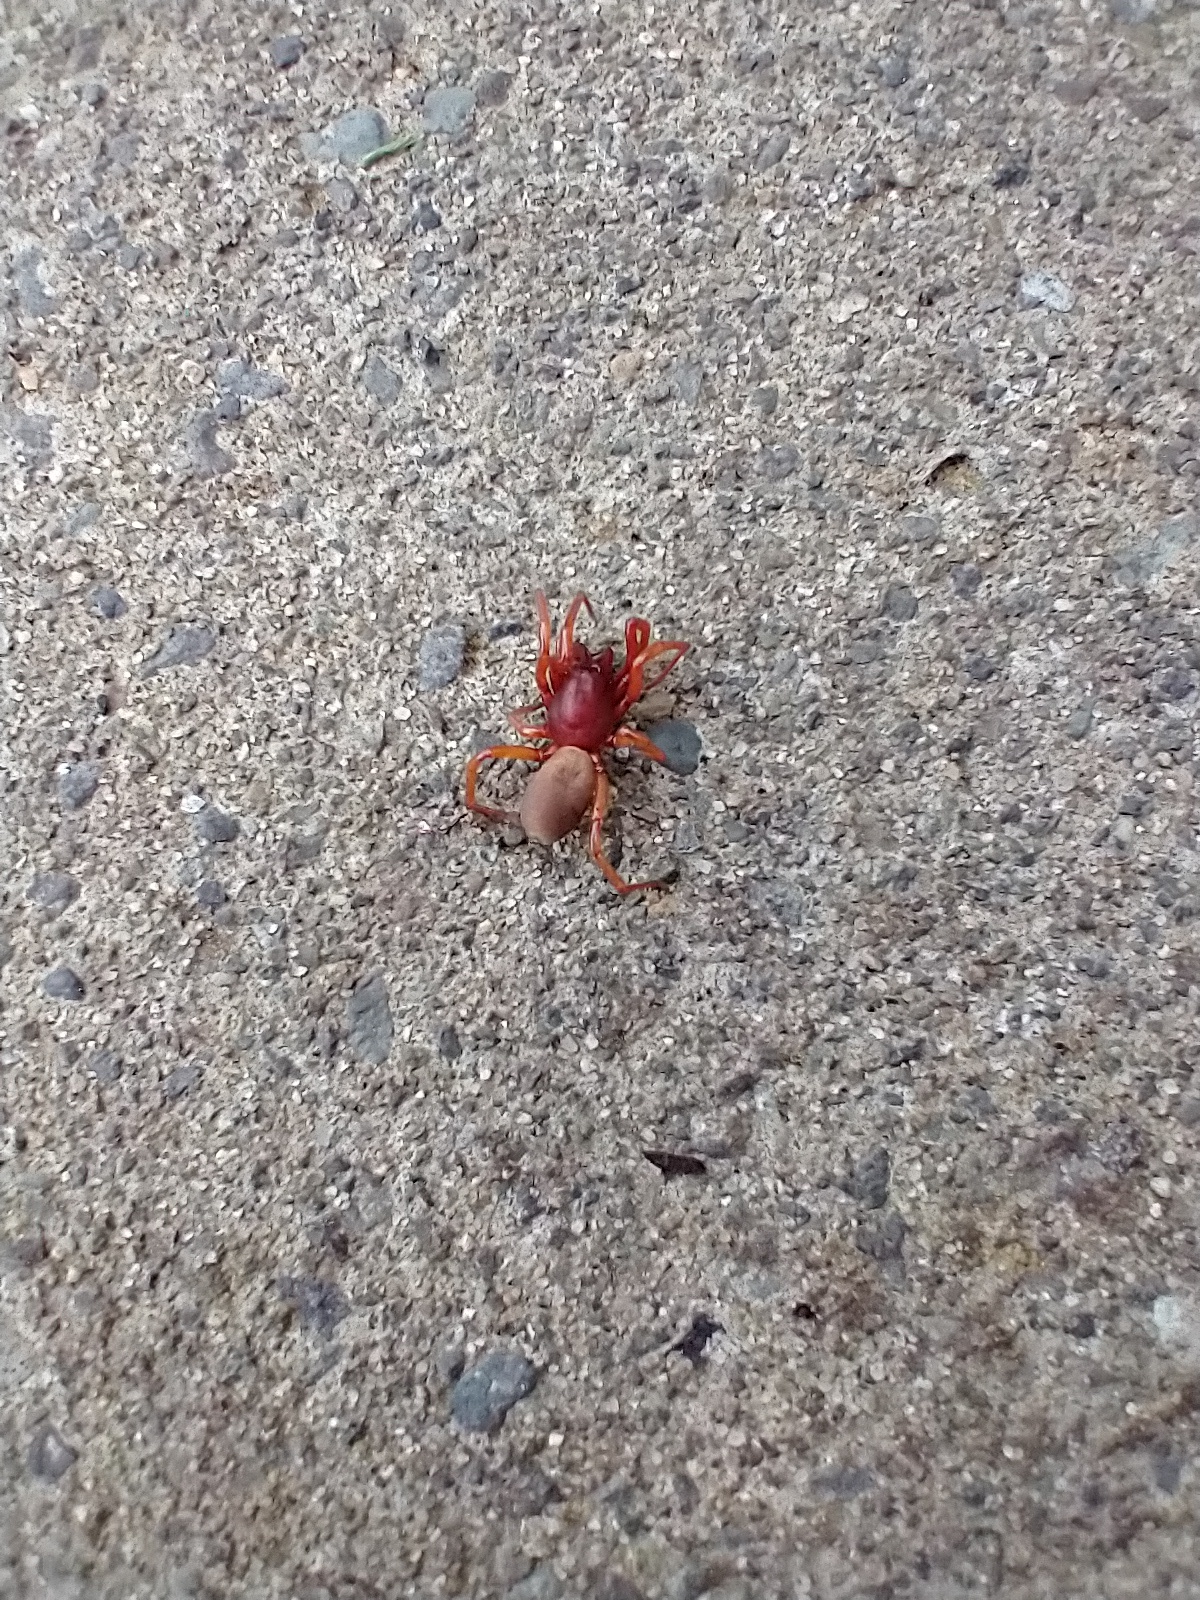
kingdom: Animalia
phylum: Arthropoda
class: Arachnida
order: Araneae
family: Dysderidae
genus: Dysdera
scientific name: Dysdera crocata
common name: Woodlouse spider
